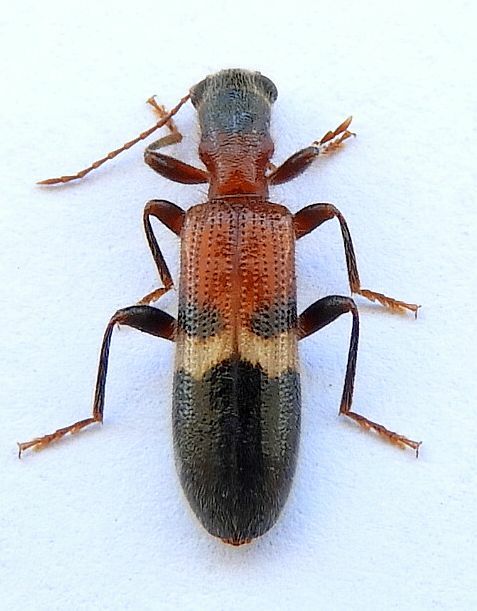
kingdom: Animalia
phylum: Arthropoda
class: Insecta
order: Coleoptera
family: Cleridae
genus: Cymatodera
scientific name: Cymatodera tricolor
